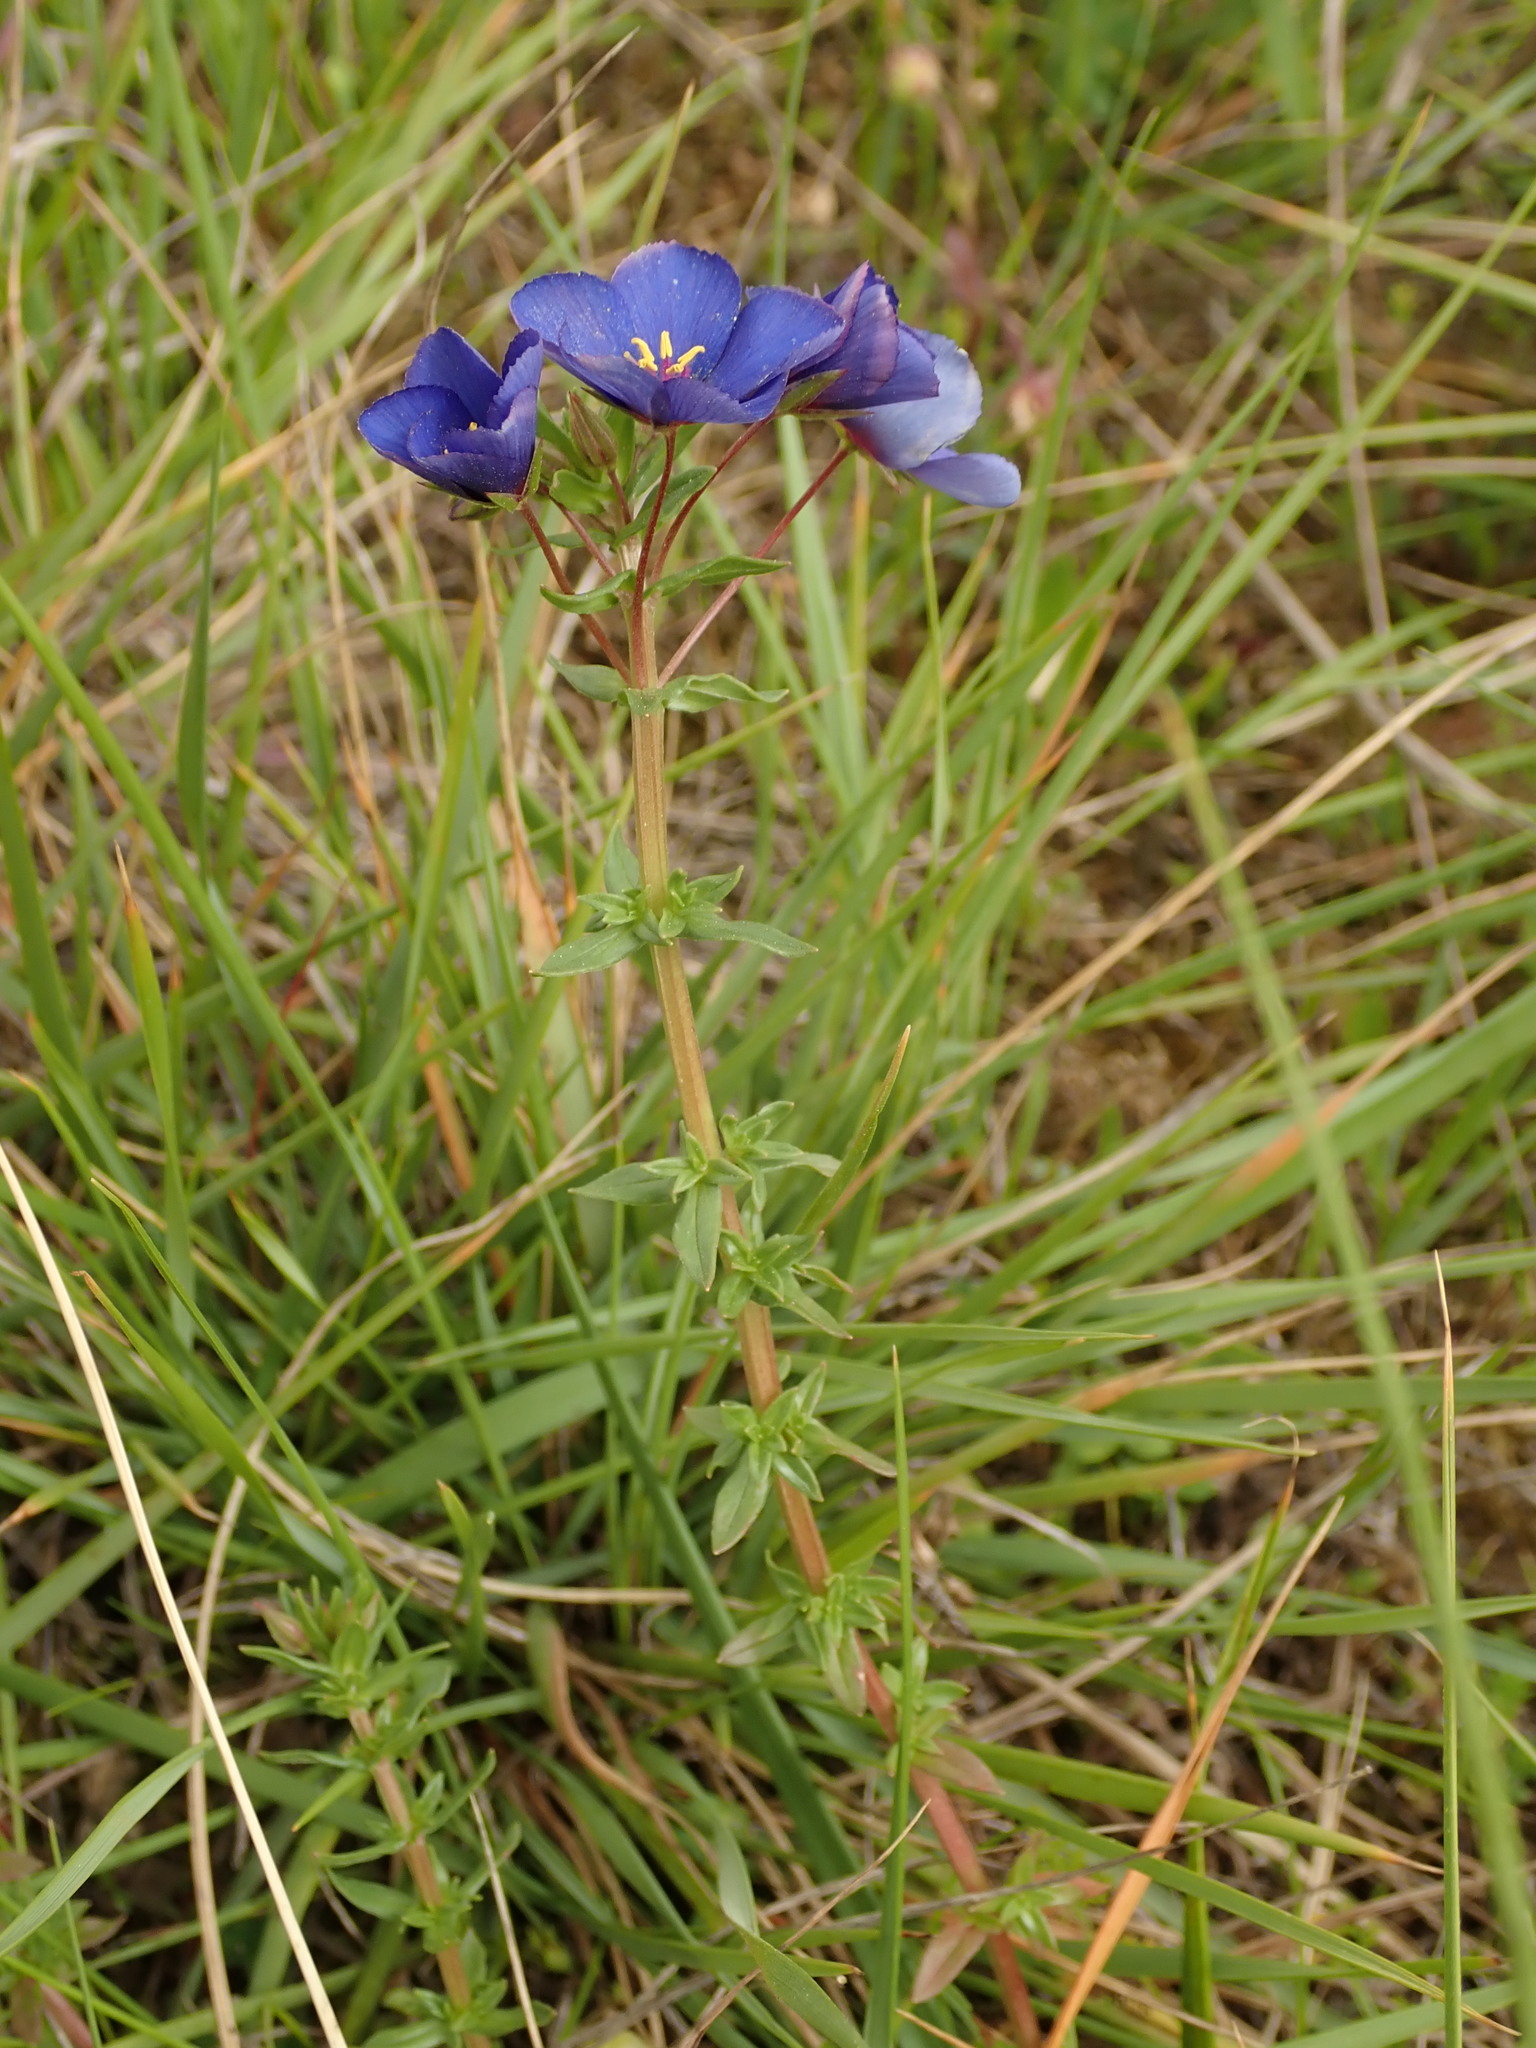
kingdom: Plantae
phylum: Tracheophyta
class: Magnoliopsida
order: Ericales
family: Primulaceae
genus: Lysimachia
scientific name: Lysimachia monelli
